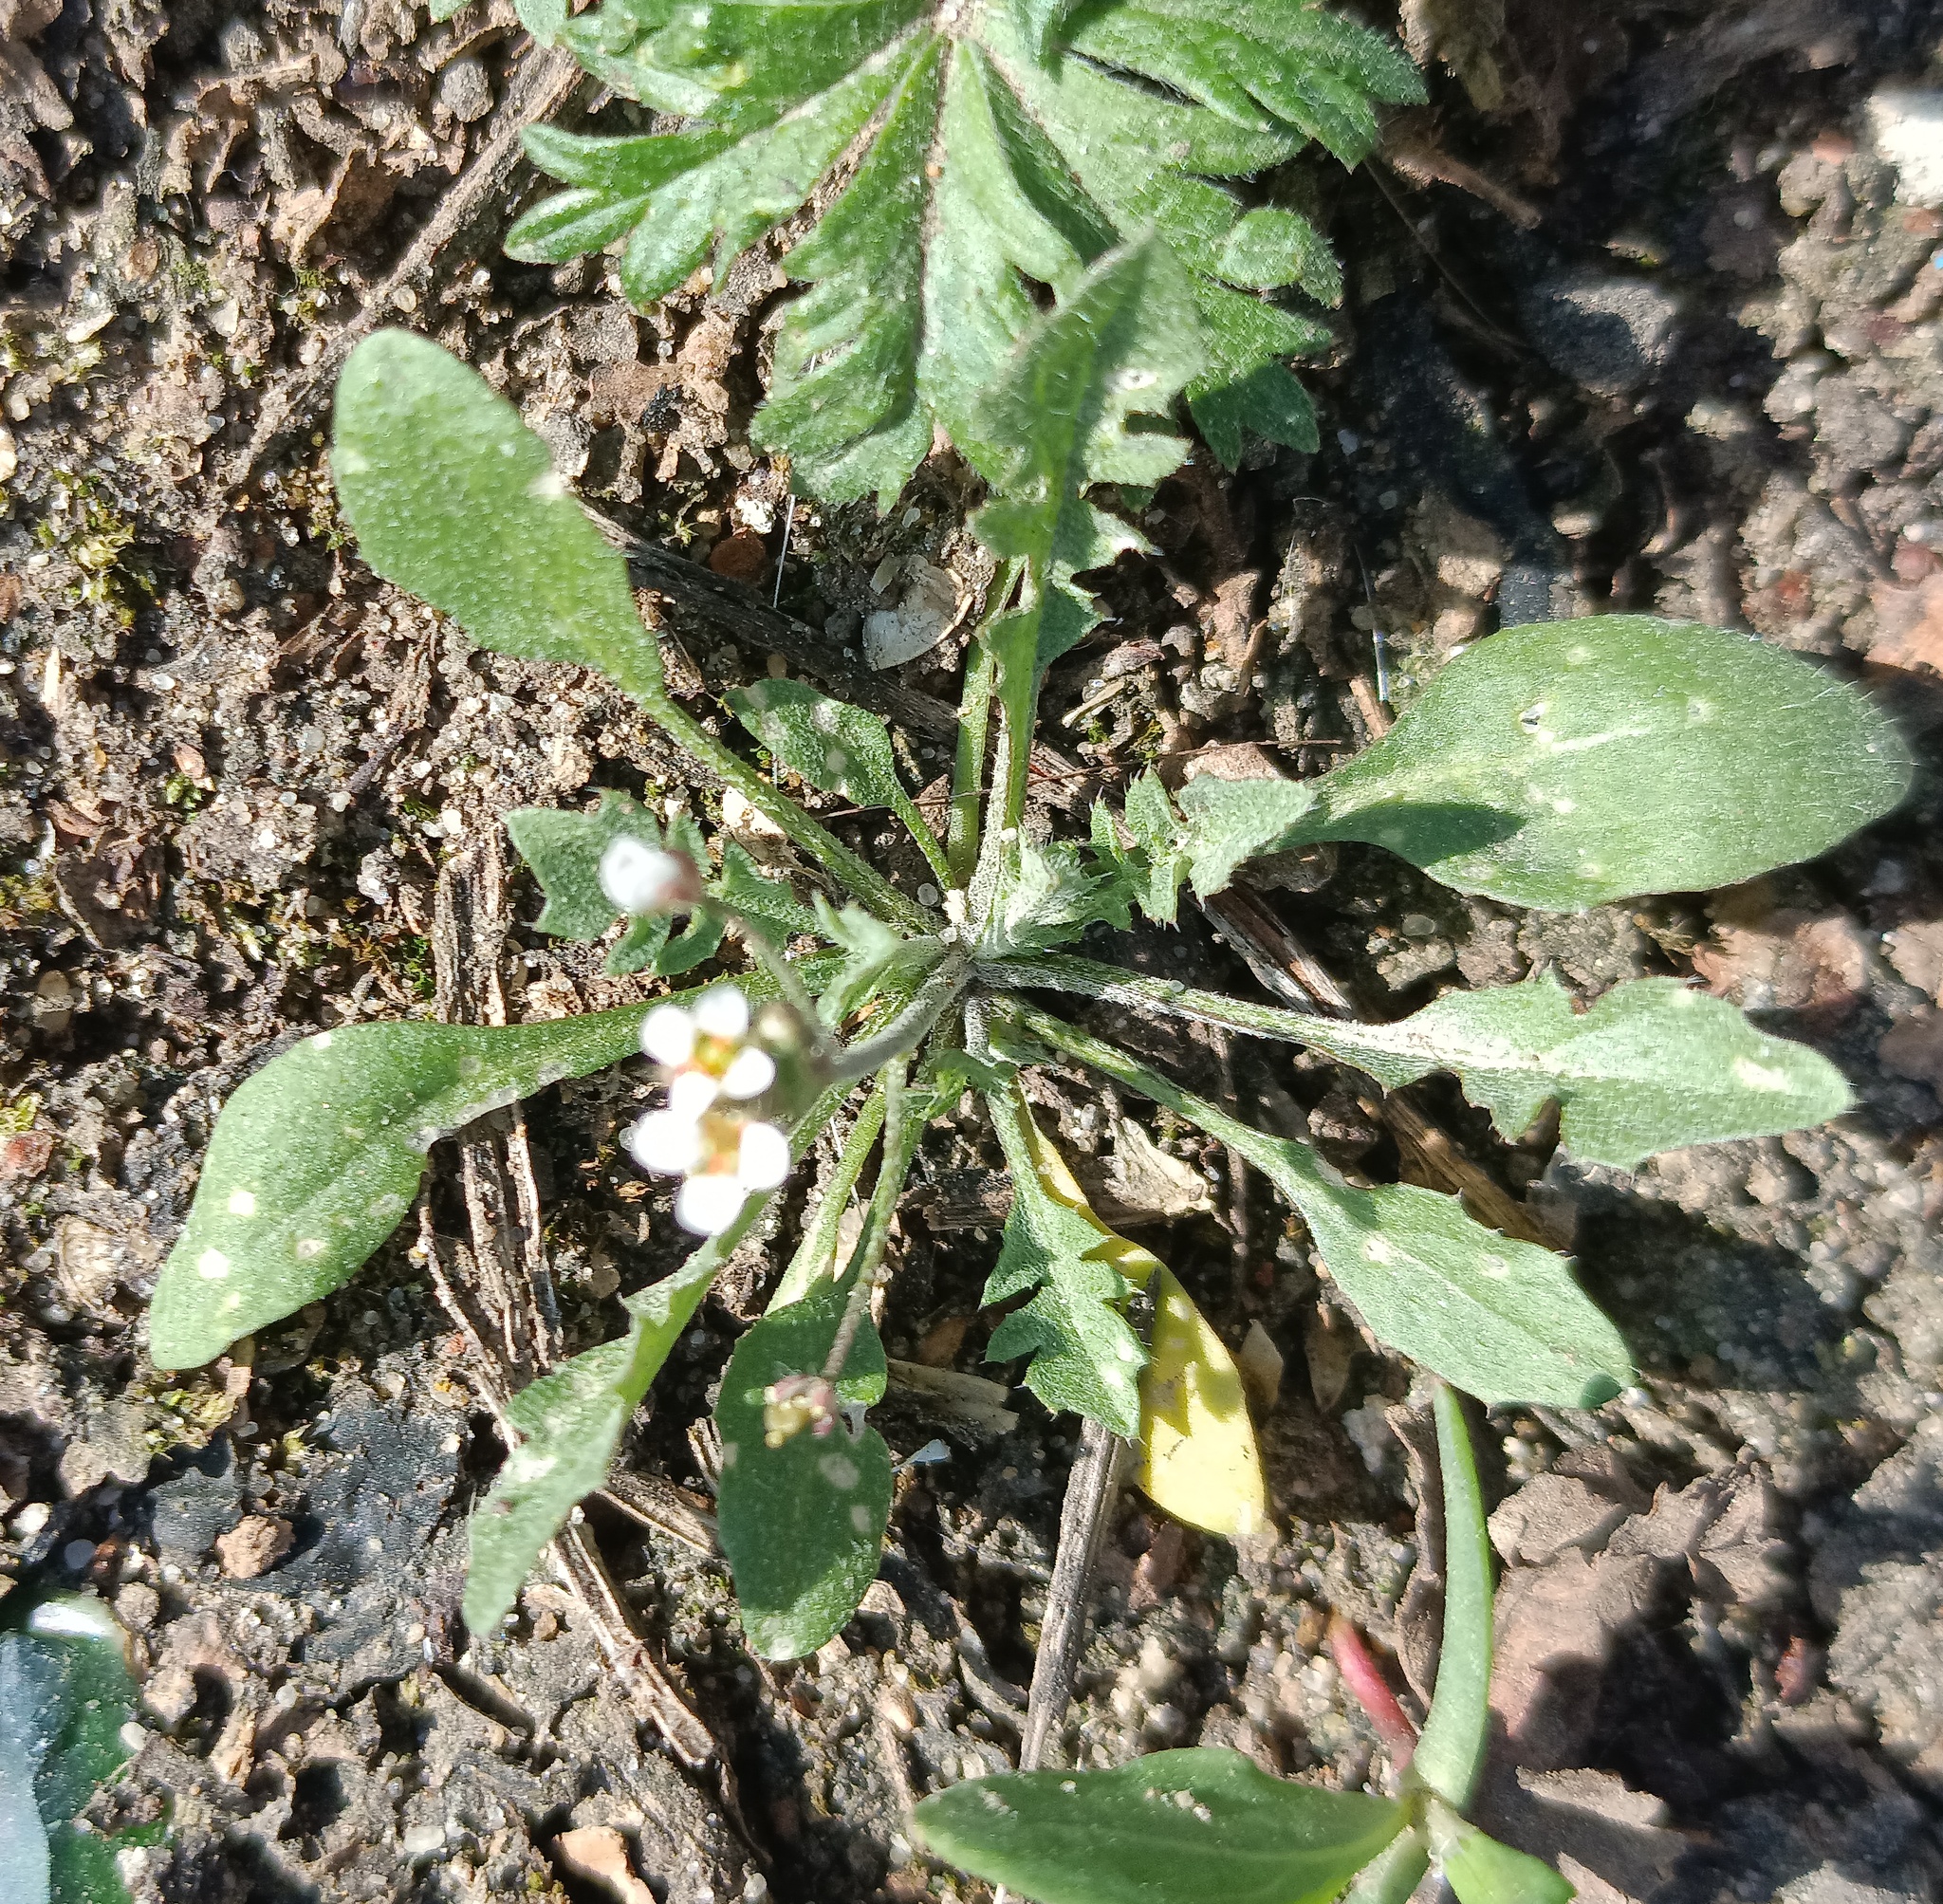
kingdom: Plantae
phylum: Tracheophyta
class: Magnoliopsida
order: Brassicales
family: Brassicaceae
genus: Capsella
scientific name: Capsella bursa-pastoris
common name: Shepherd's purse
